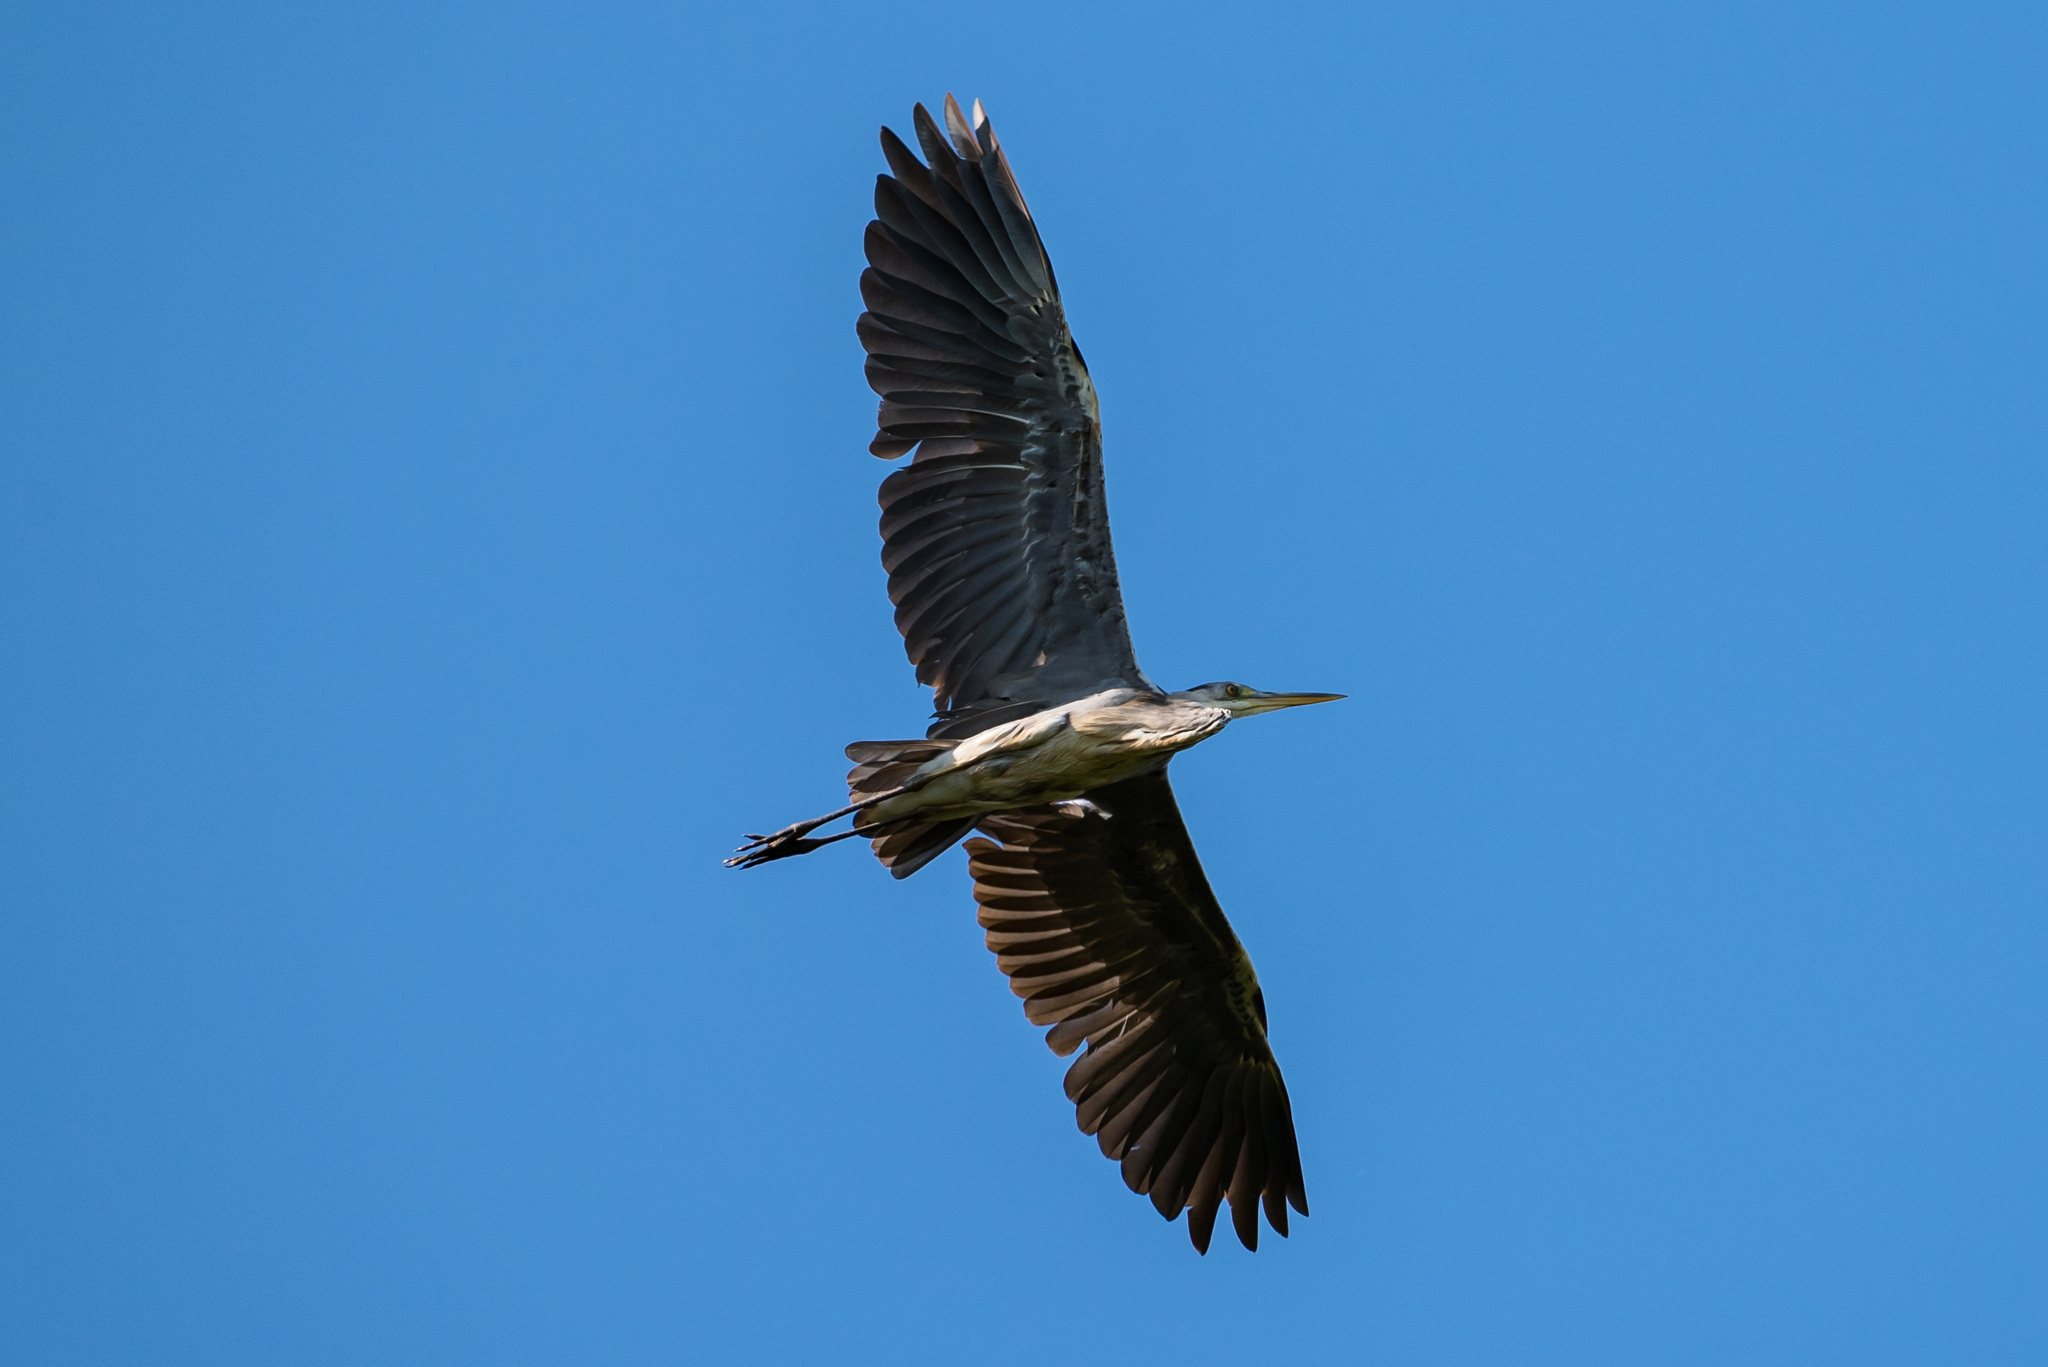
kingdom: Animalia
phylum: Chordata
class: Aves
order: Pelecaniformes
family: Ardeidae
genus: Ardea
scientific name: Ardea cinerea
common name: Grey heron
